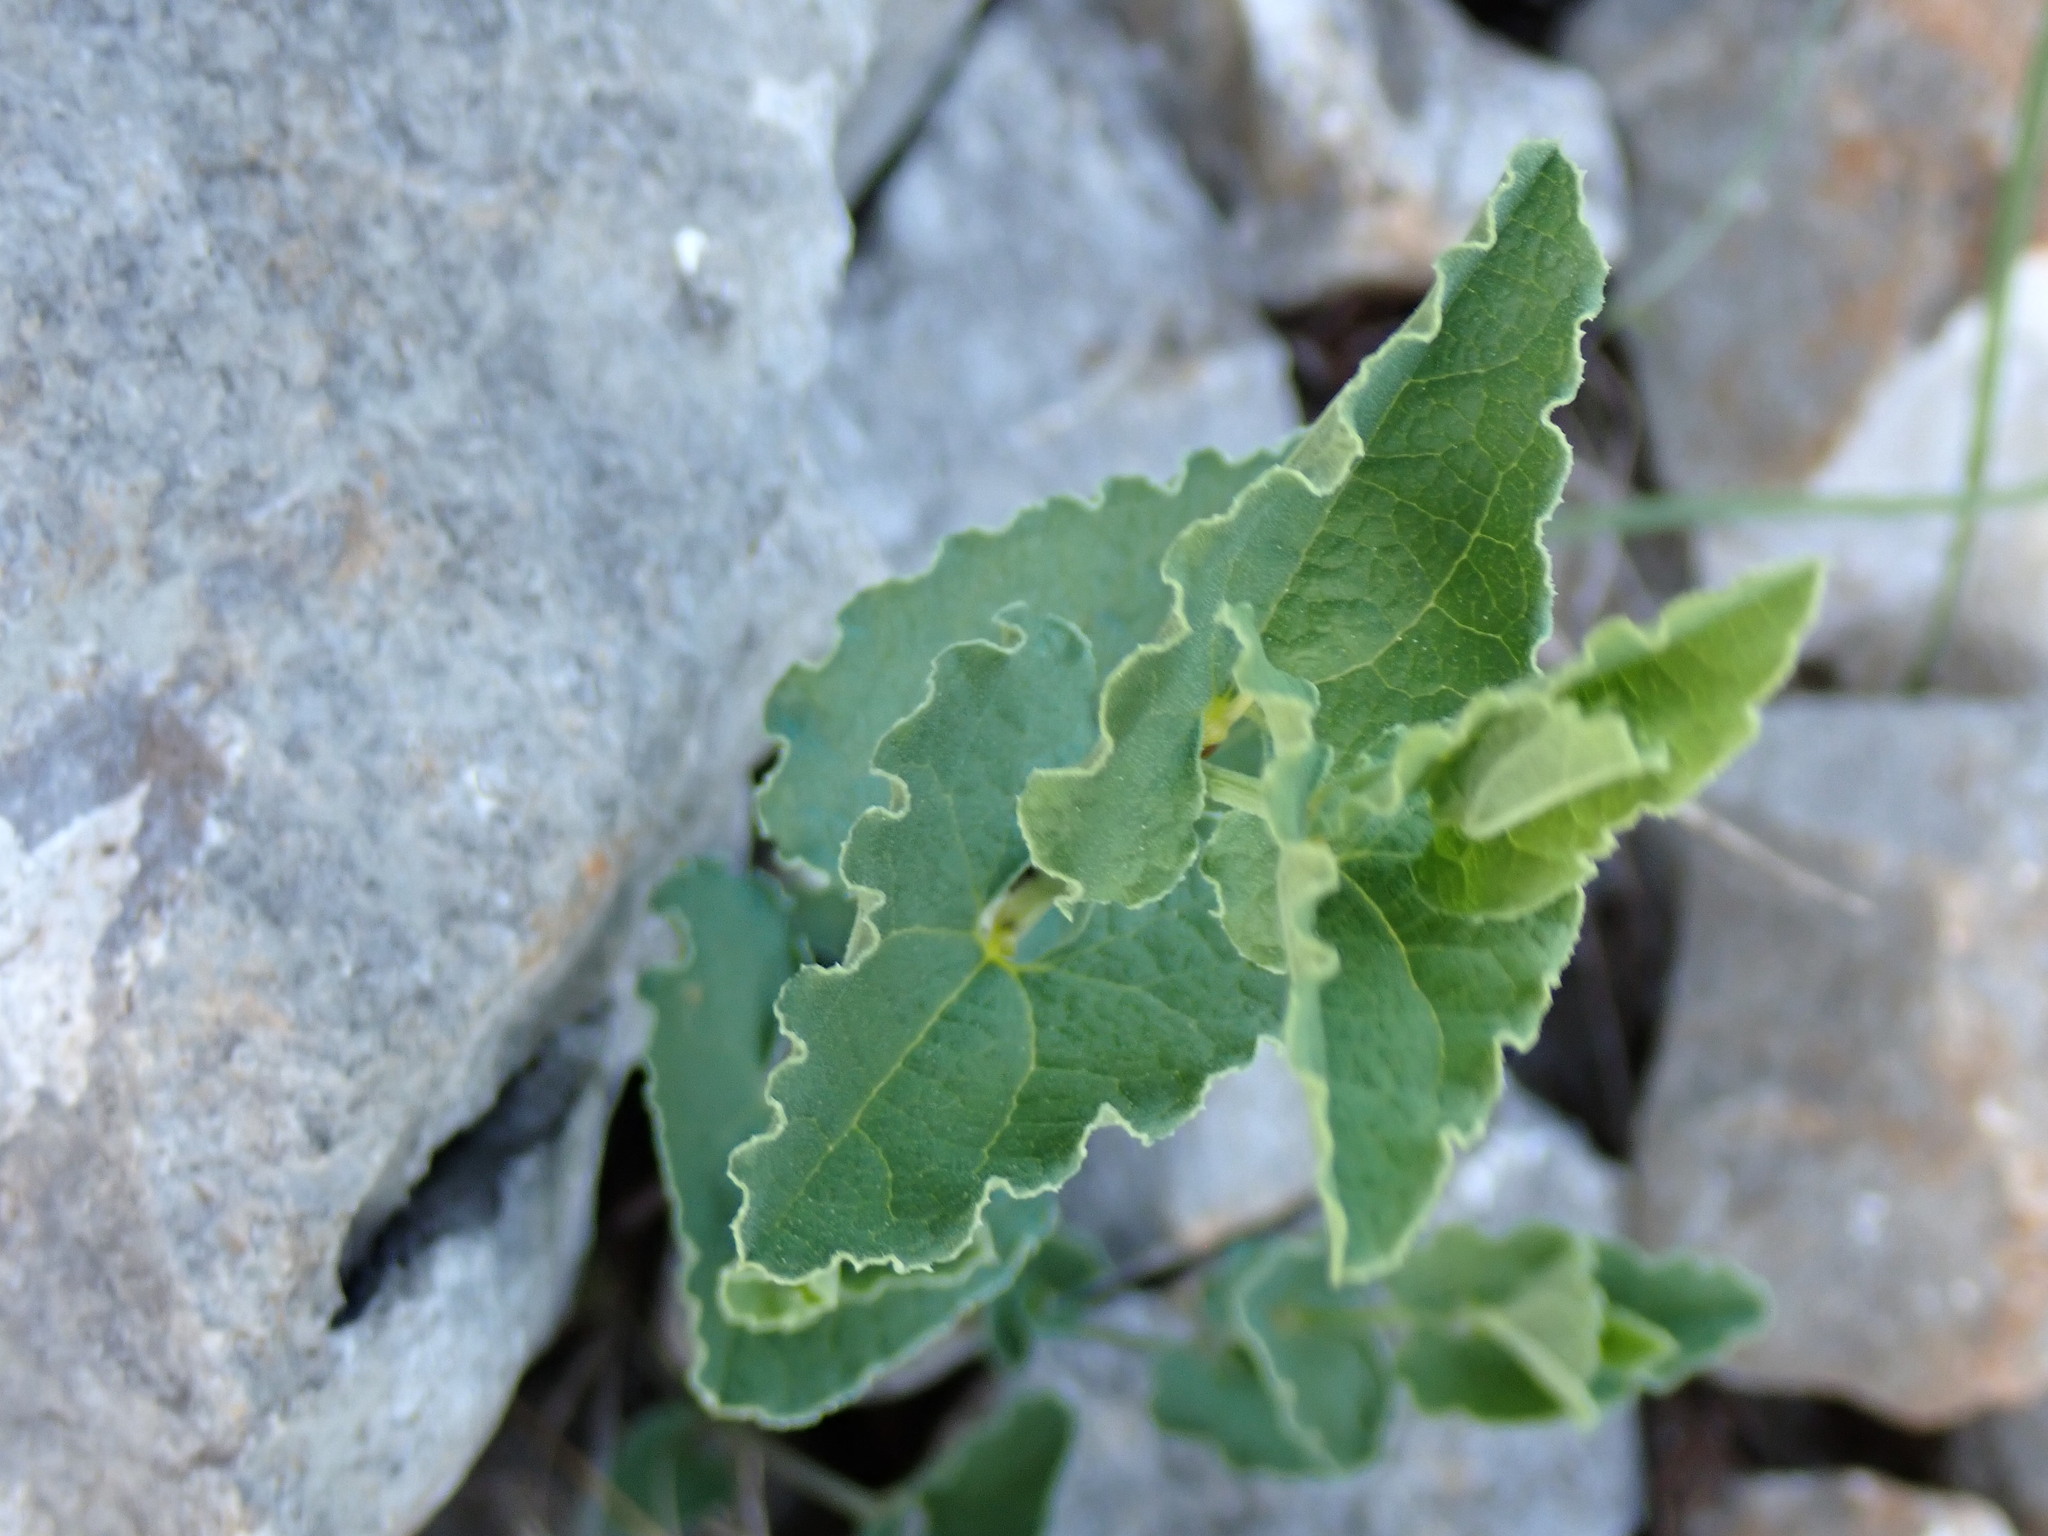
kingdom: Plantae
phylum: Tracheophyta
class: Magnoliopsida
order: Piperales
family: Aristolochiaceae
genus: Aristolochia
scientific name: Aristolochia pistolochia
